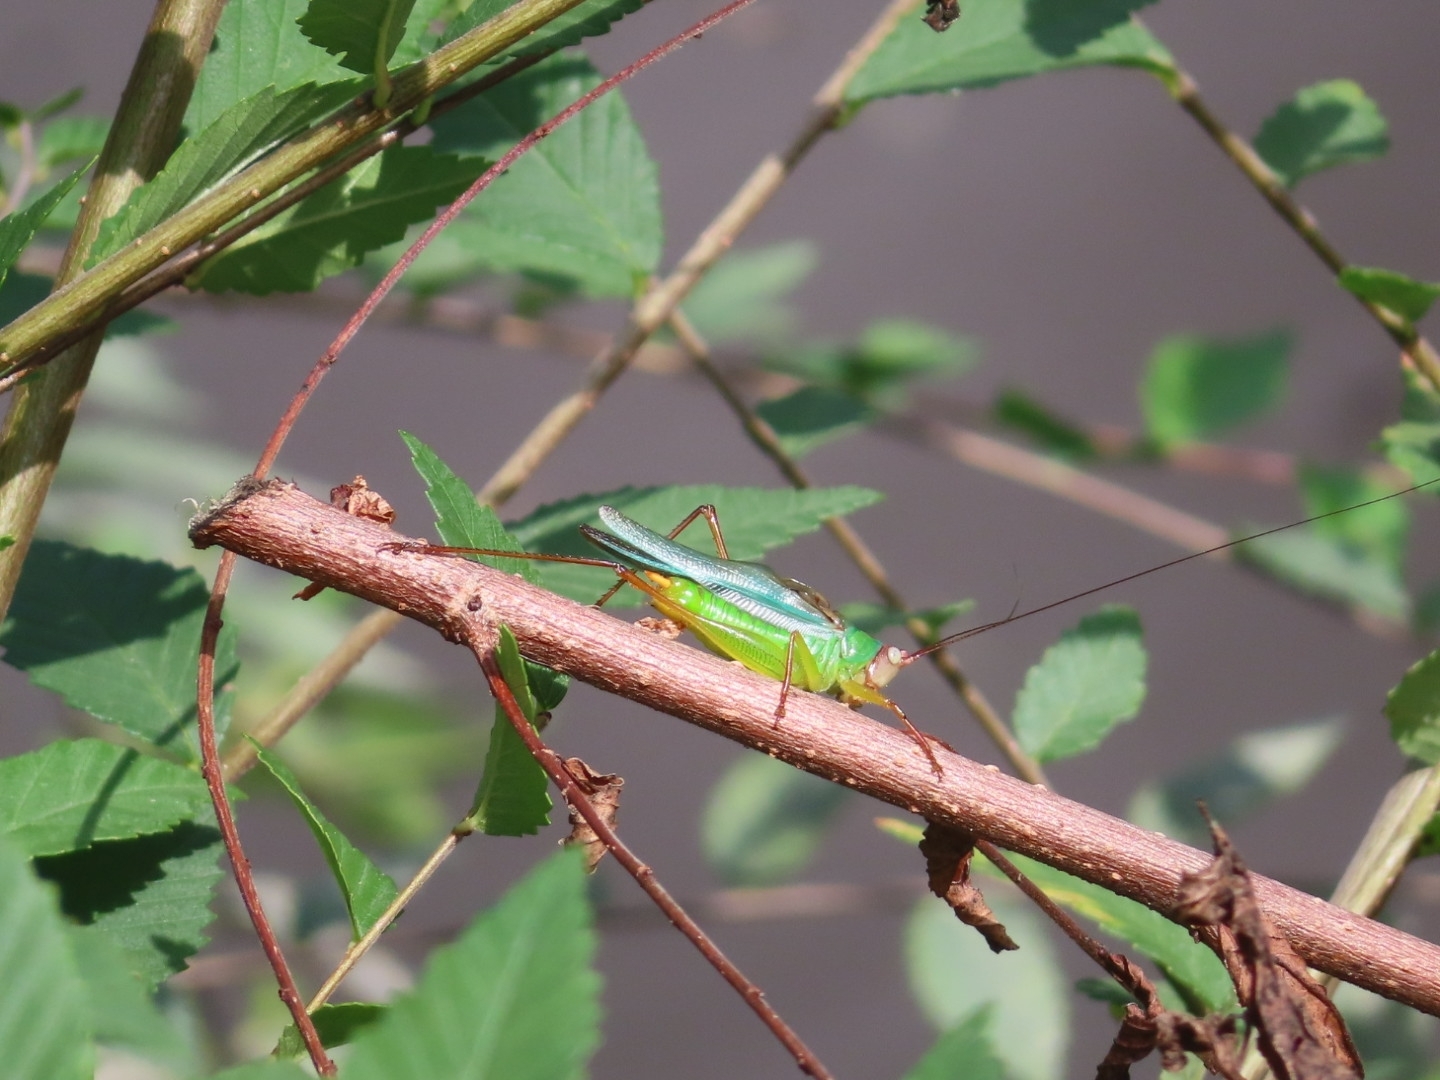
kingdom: Animalia
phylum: Arthropoda
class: Insecta
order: Orthoptera
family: Tettigoniidae
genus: Orchelimum
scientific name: Orchelimum pulchellum
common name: Handsome meadow katydid
